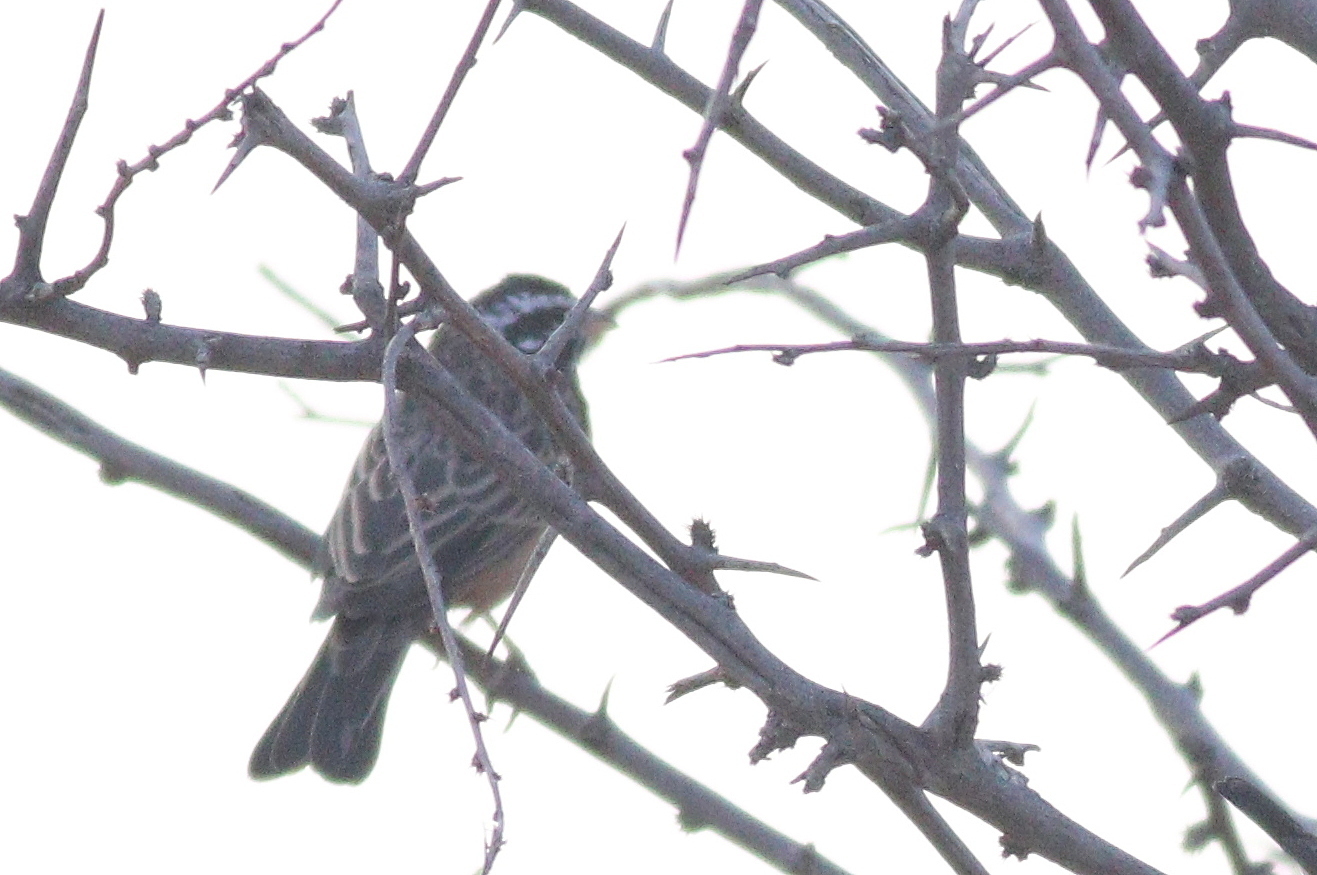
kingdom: Animalia
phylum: Chordata
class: Aves
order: Passeriformes
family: Emberizidae
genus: Emberiza
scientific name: Emberiza tahapisi
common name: Cinnamon-breasted bunting
